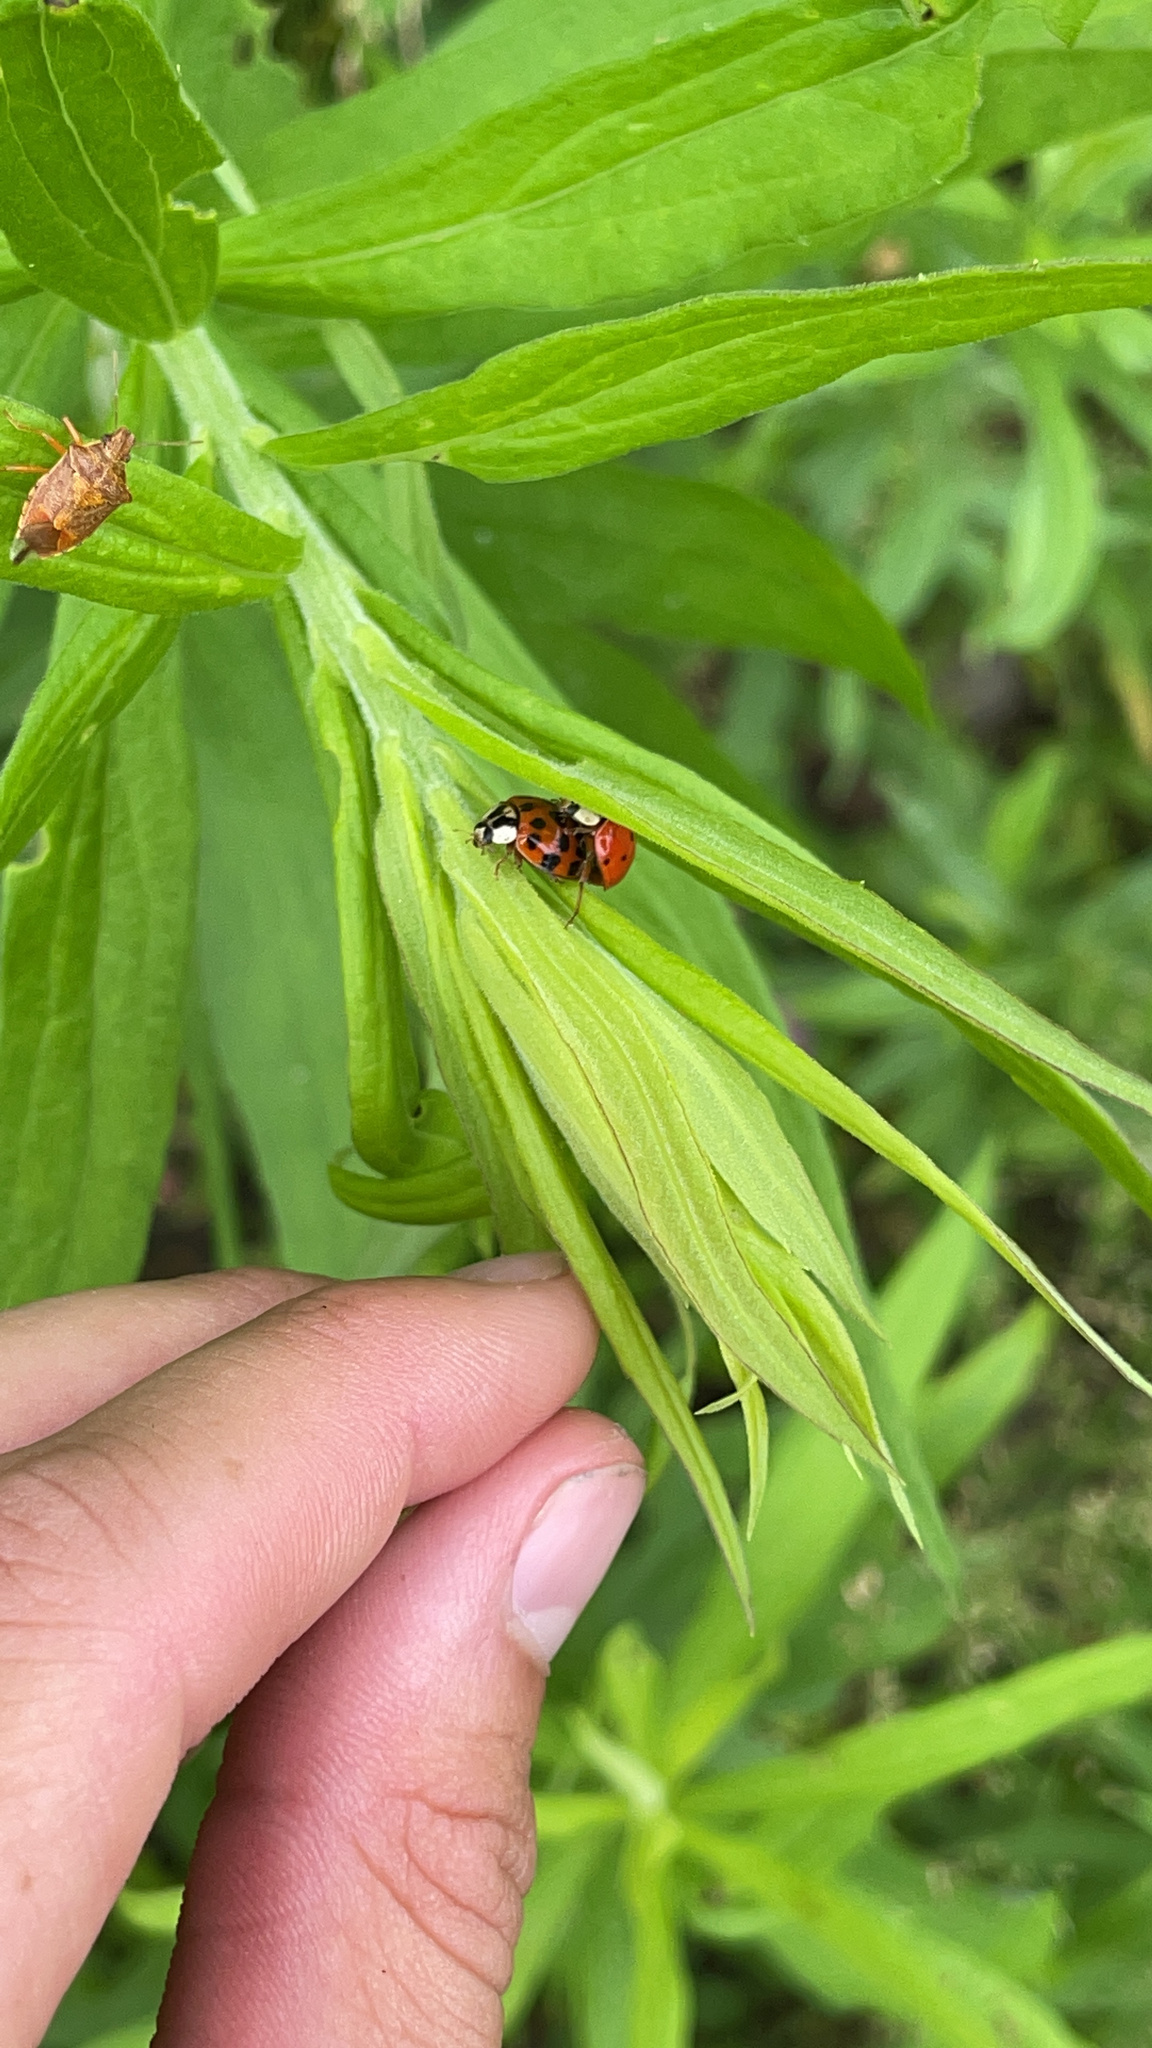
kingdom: Animalia
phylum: Arthropoda
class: Insecta
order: Coleoptera
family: Coccinellidae
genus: Harmonia
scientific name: Harmonia axyridis
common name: Harlequin ladybird
